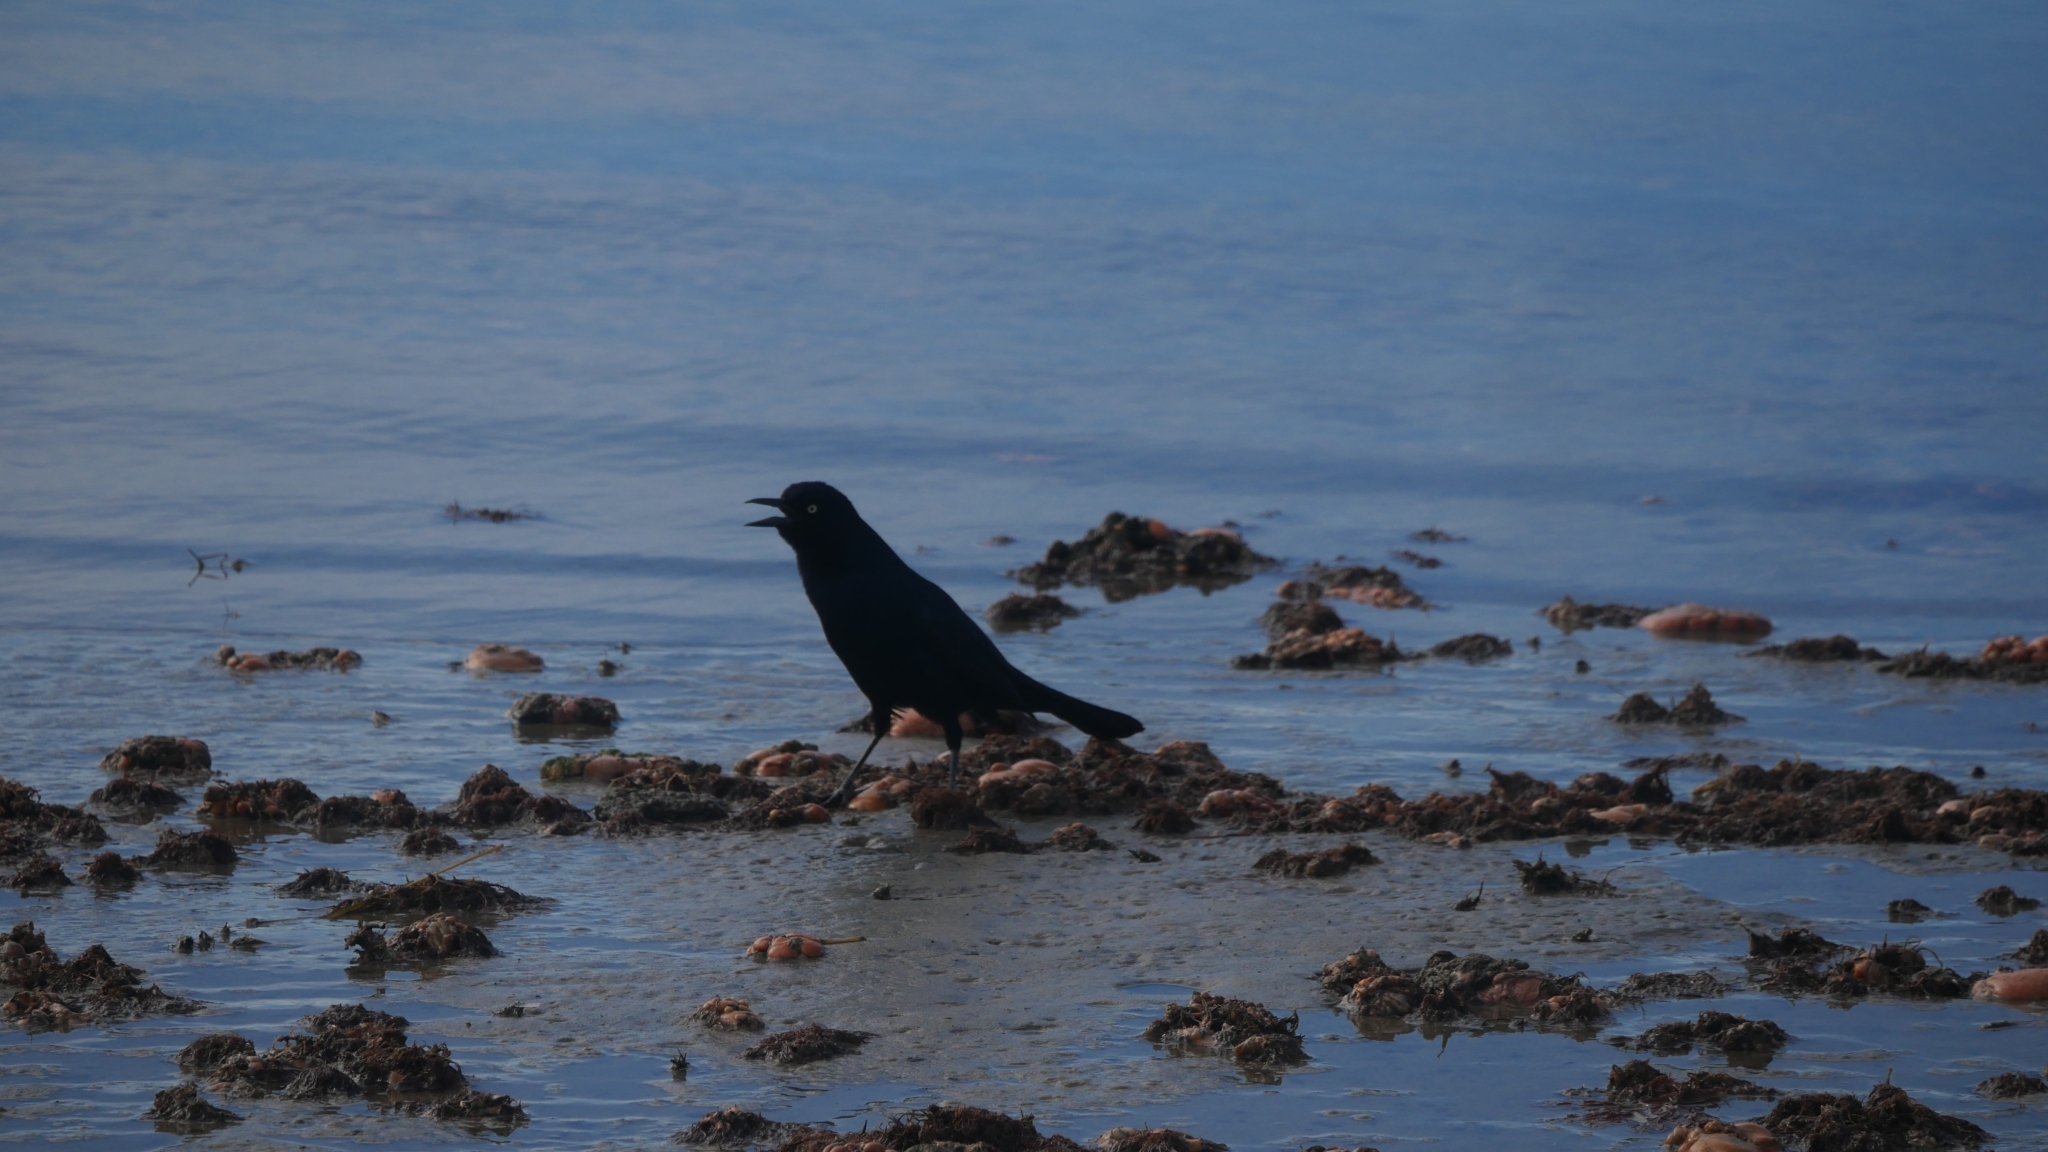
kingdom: Animalia
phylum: Chordata
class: Aves
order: Passeriformes
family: Icteridae
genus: Quiscalus
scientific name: Quiscalus major
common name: Boat-tailed grackle
